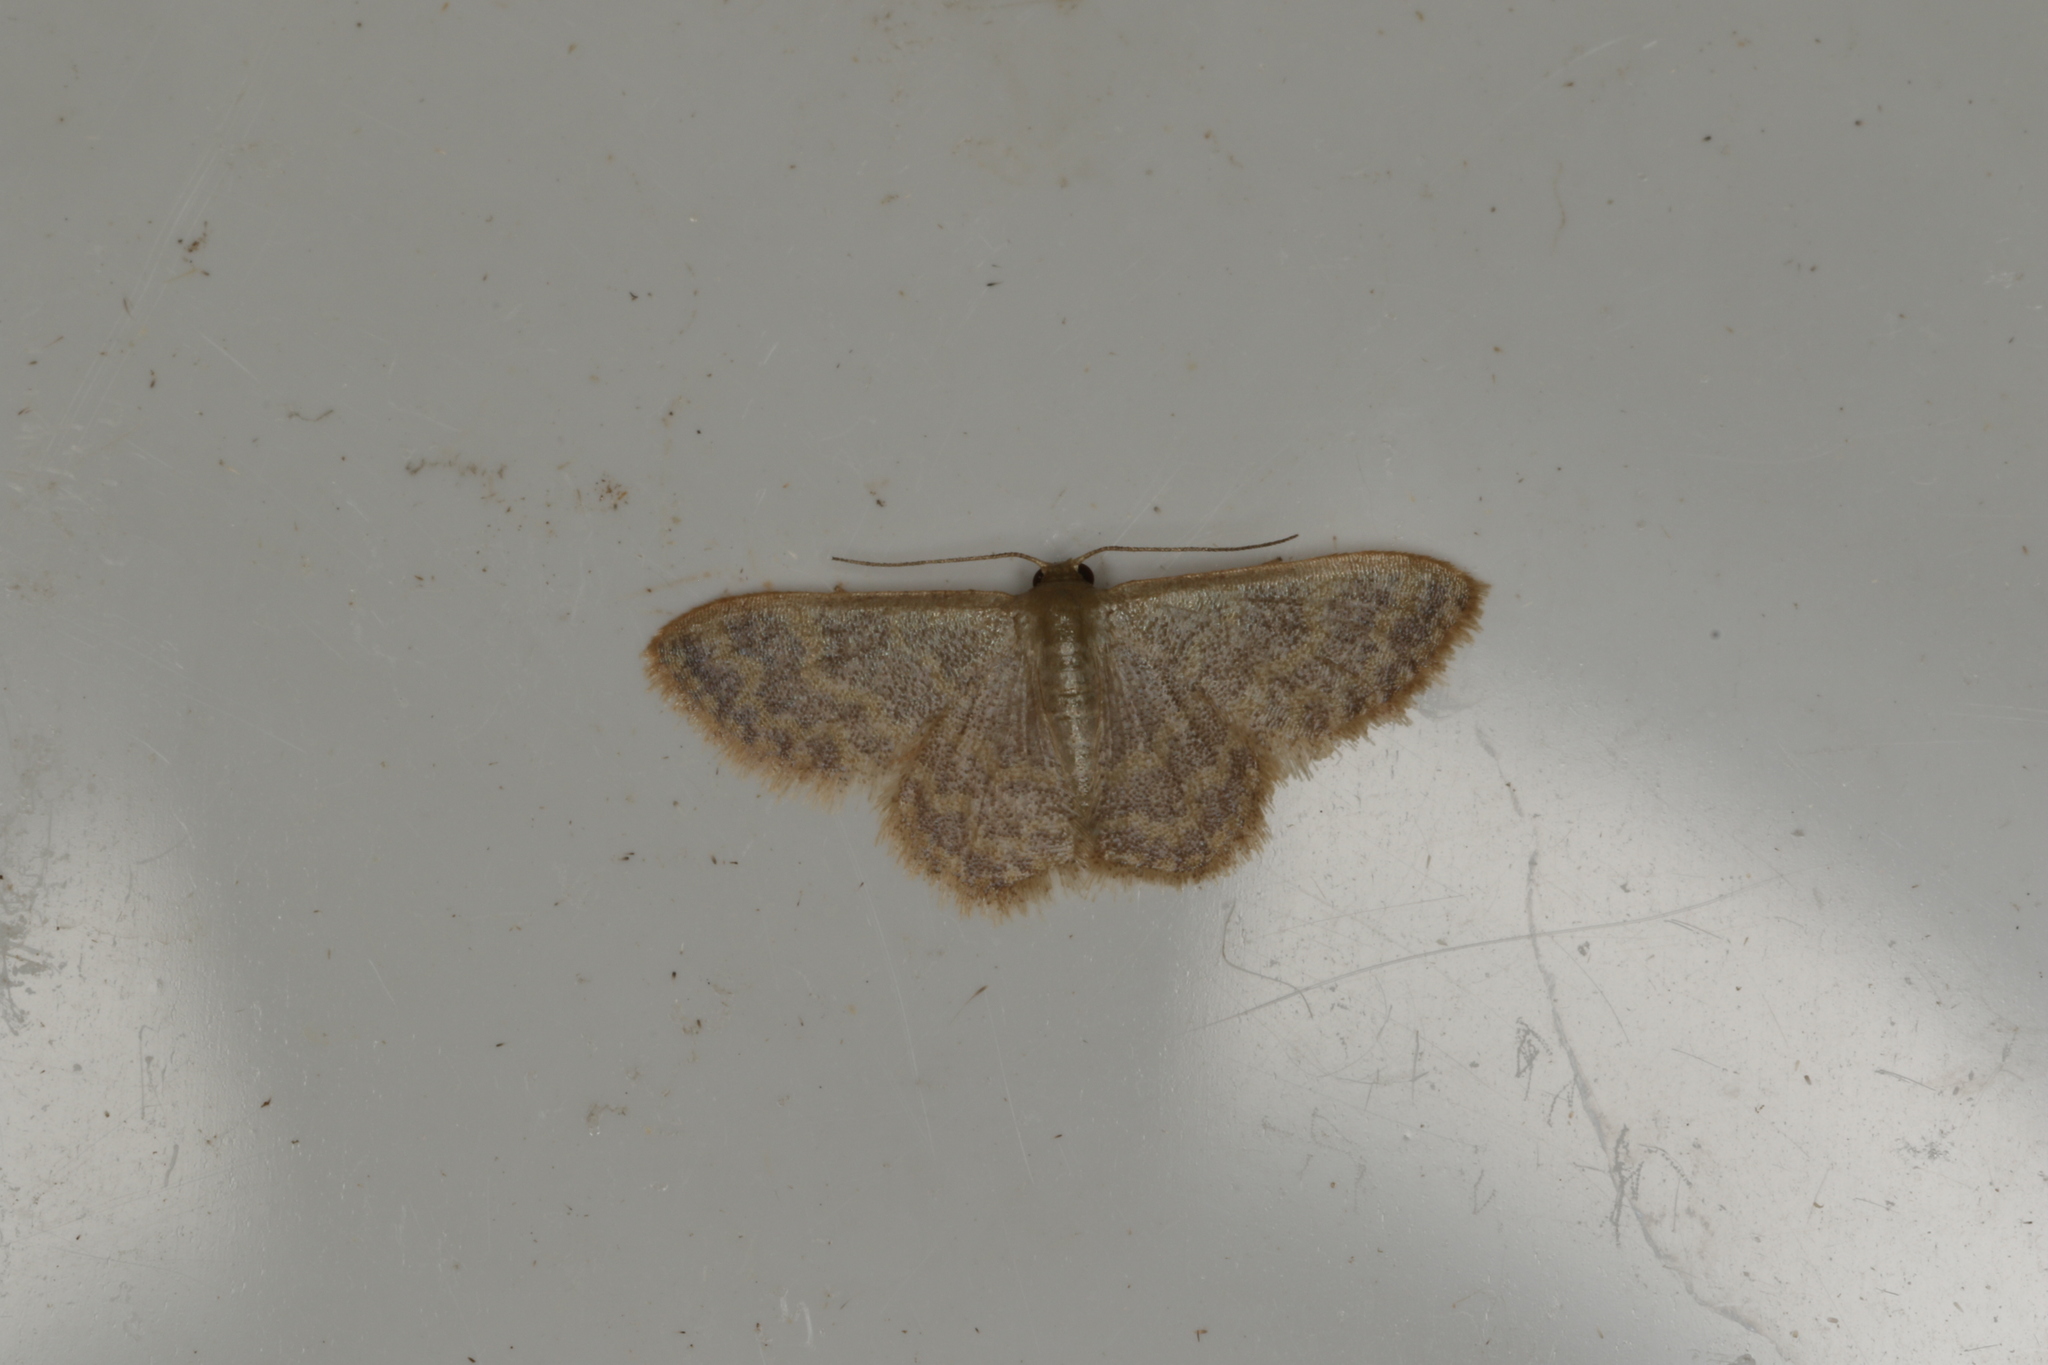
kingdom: Animalia
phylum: Arthropoda
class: Insecta
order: Lepidoptera
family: Geometridae
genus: Idaea
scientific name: Idaea simplex
